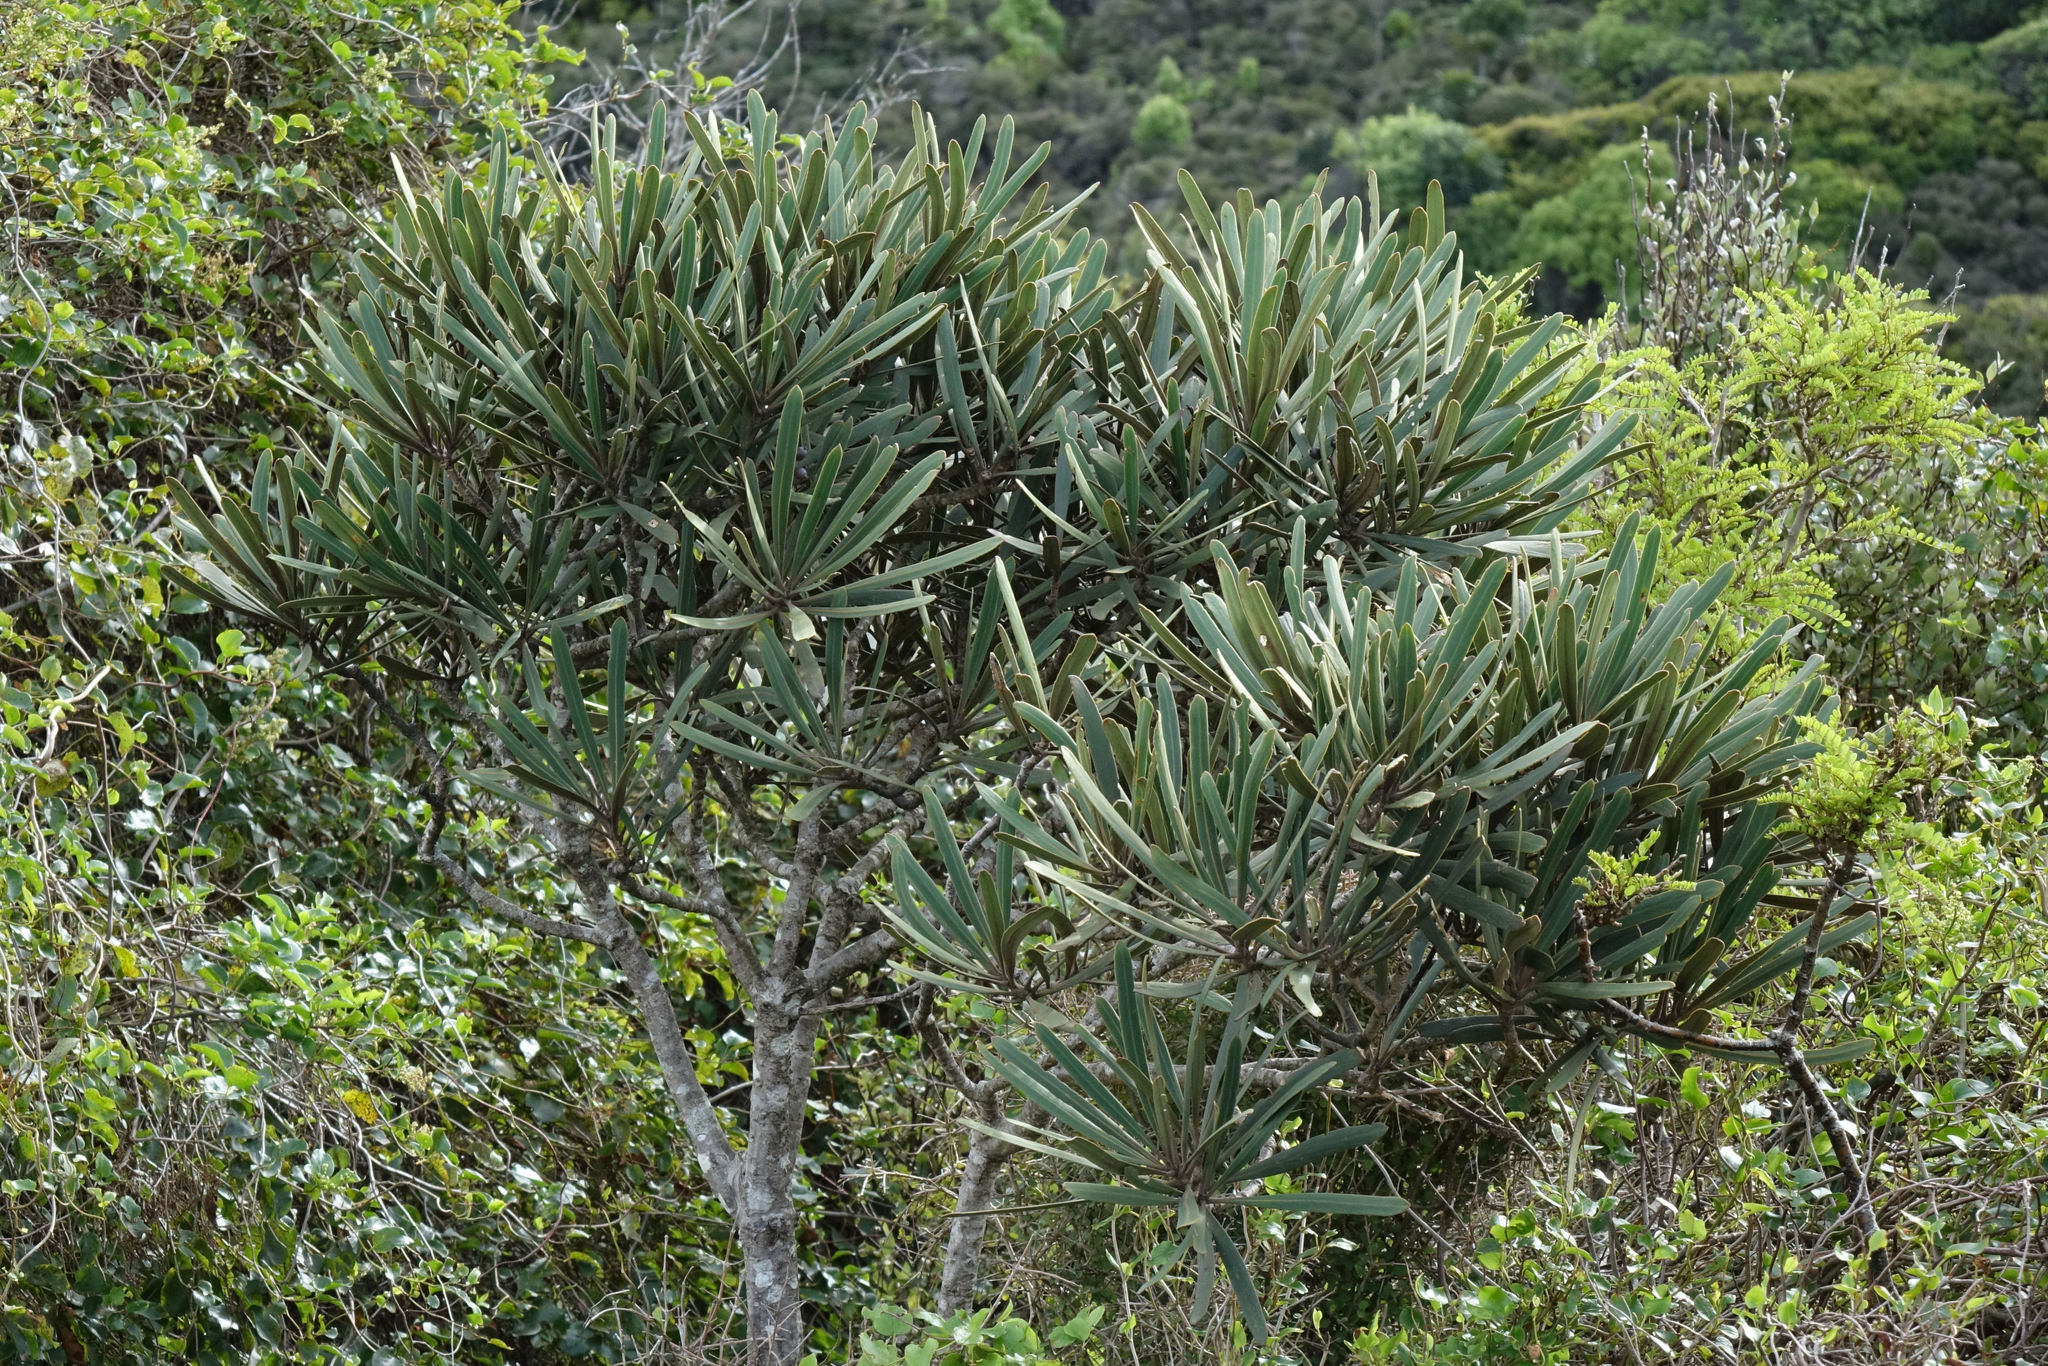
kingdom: Plantae
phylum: Tracheophyta
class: Magnoliopsida
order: Apiales
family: Araliaceae
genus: Pseudopanax
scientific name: Pseudopanax ferox
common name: Fierce lancewood
